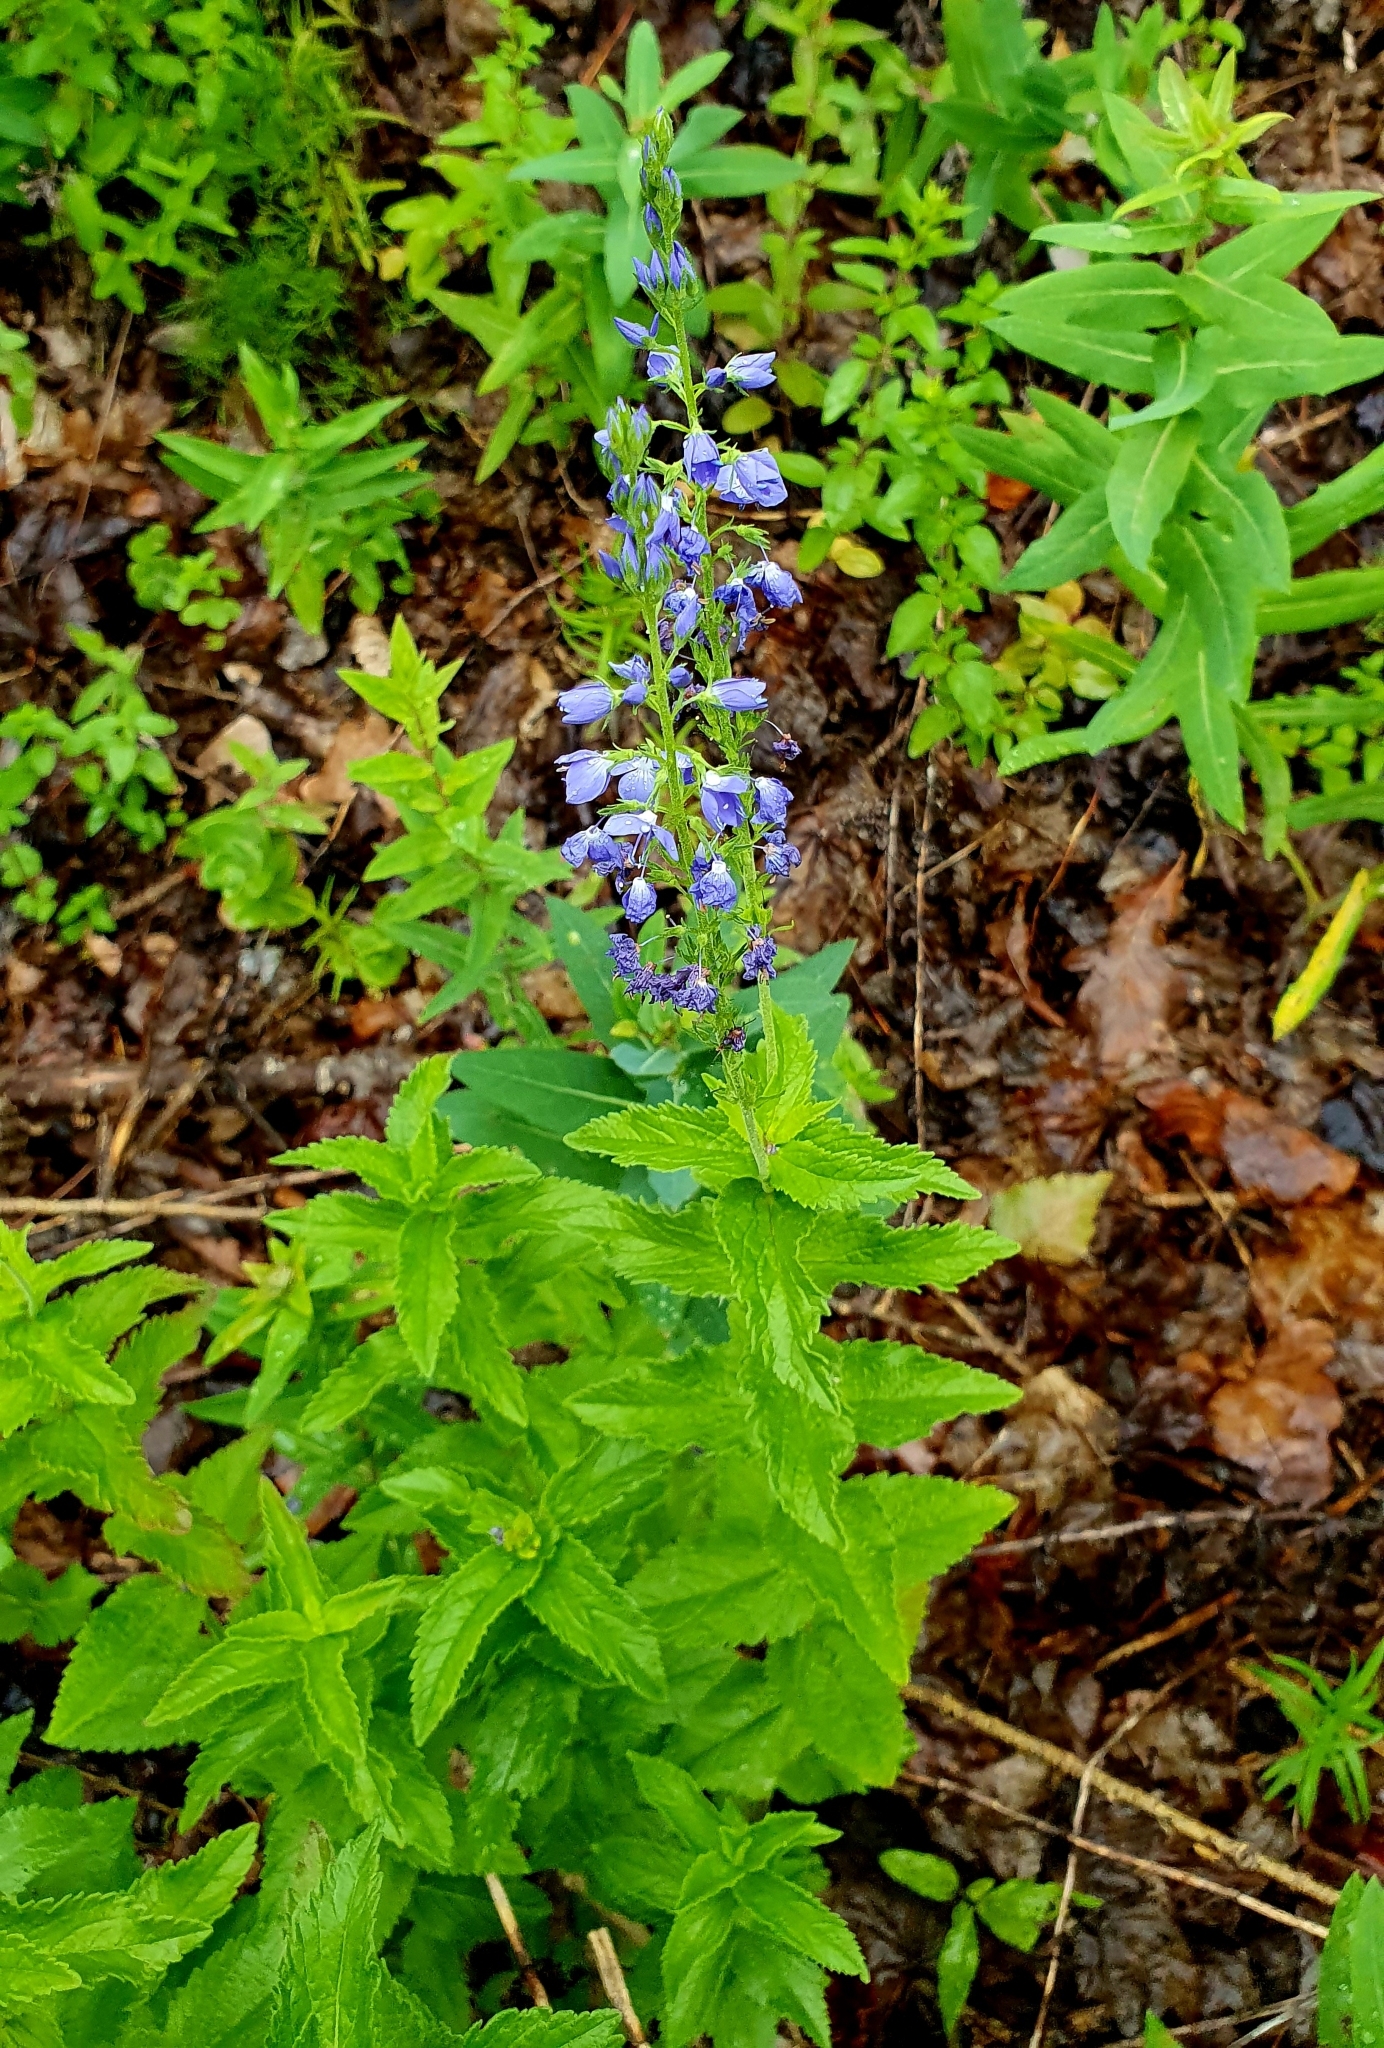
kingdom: Plantae
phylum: Tracheophyta
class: Magnoliopsida
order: Lamiales
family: Plantaginaceae
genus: Veronica
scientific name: Veronica teucrium
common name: Large speedwell
